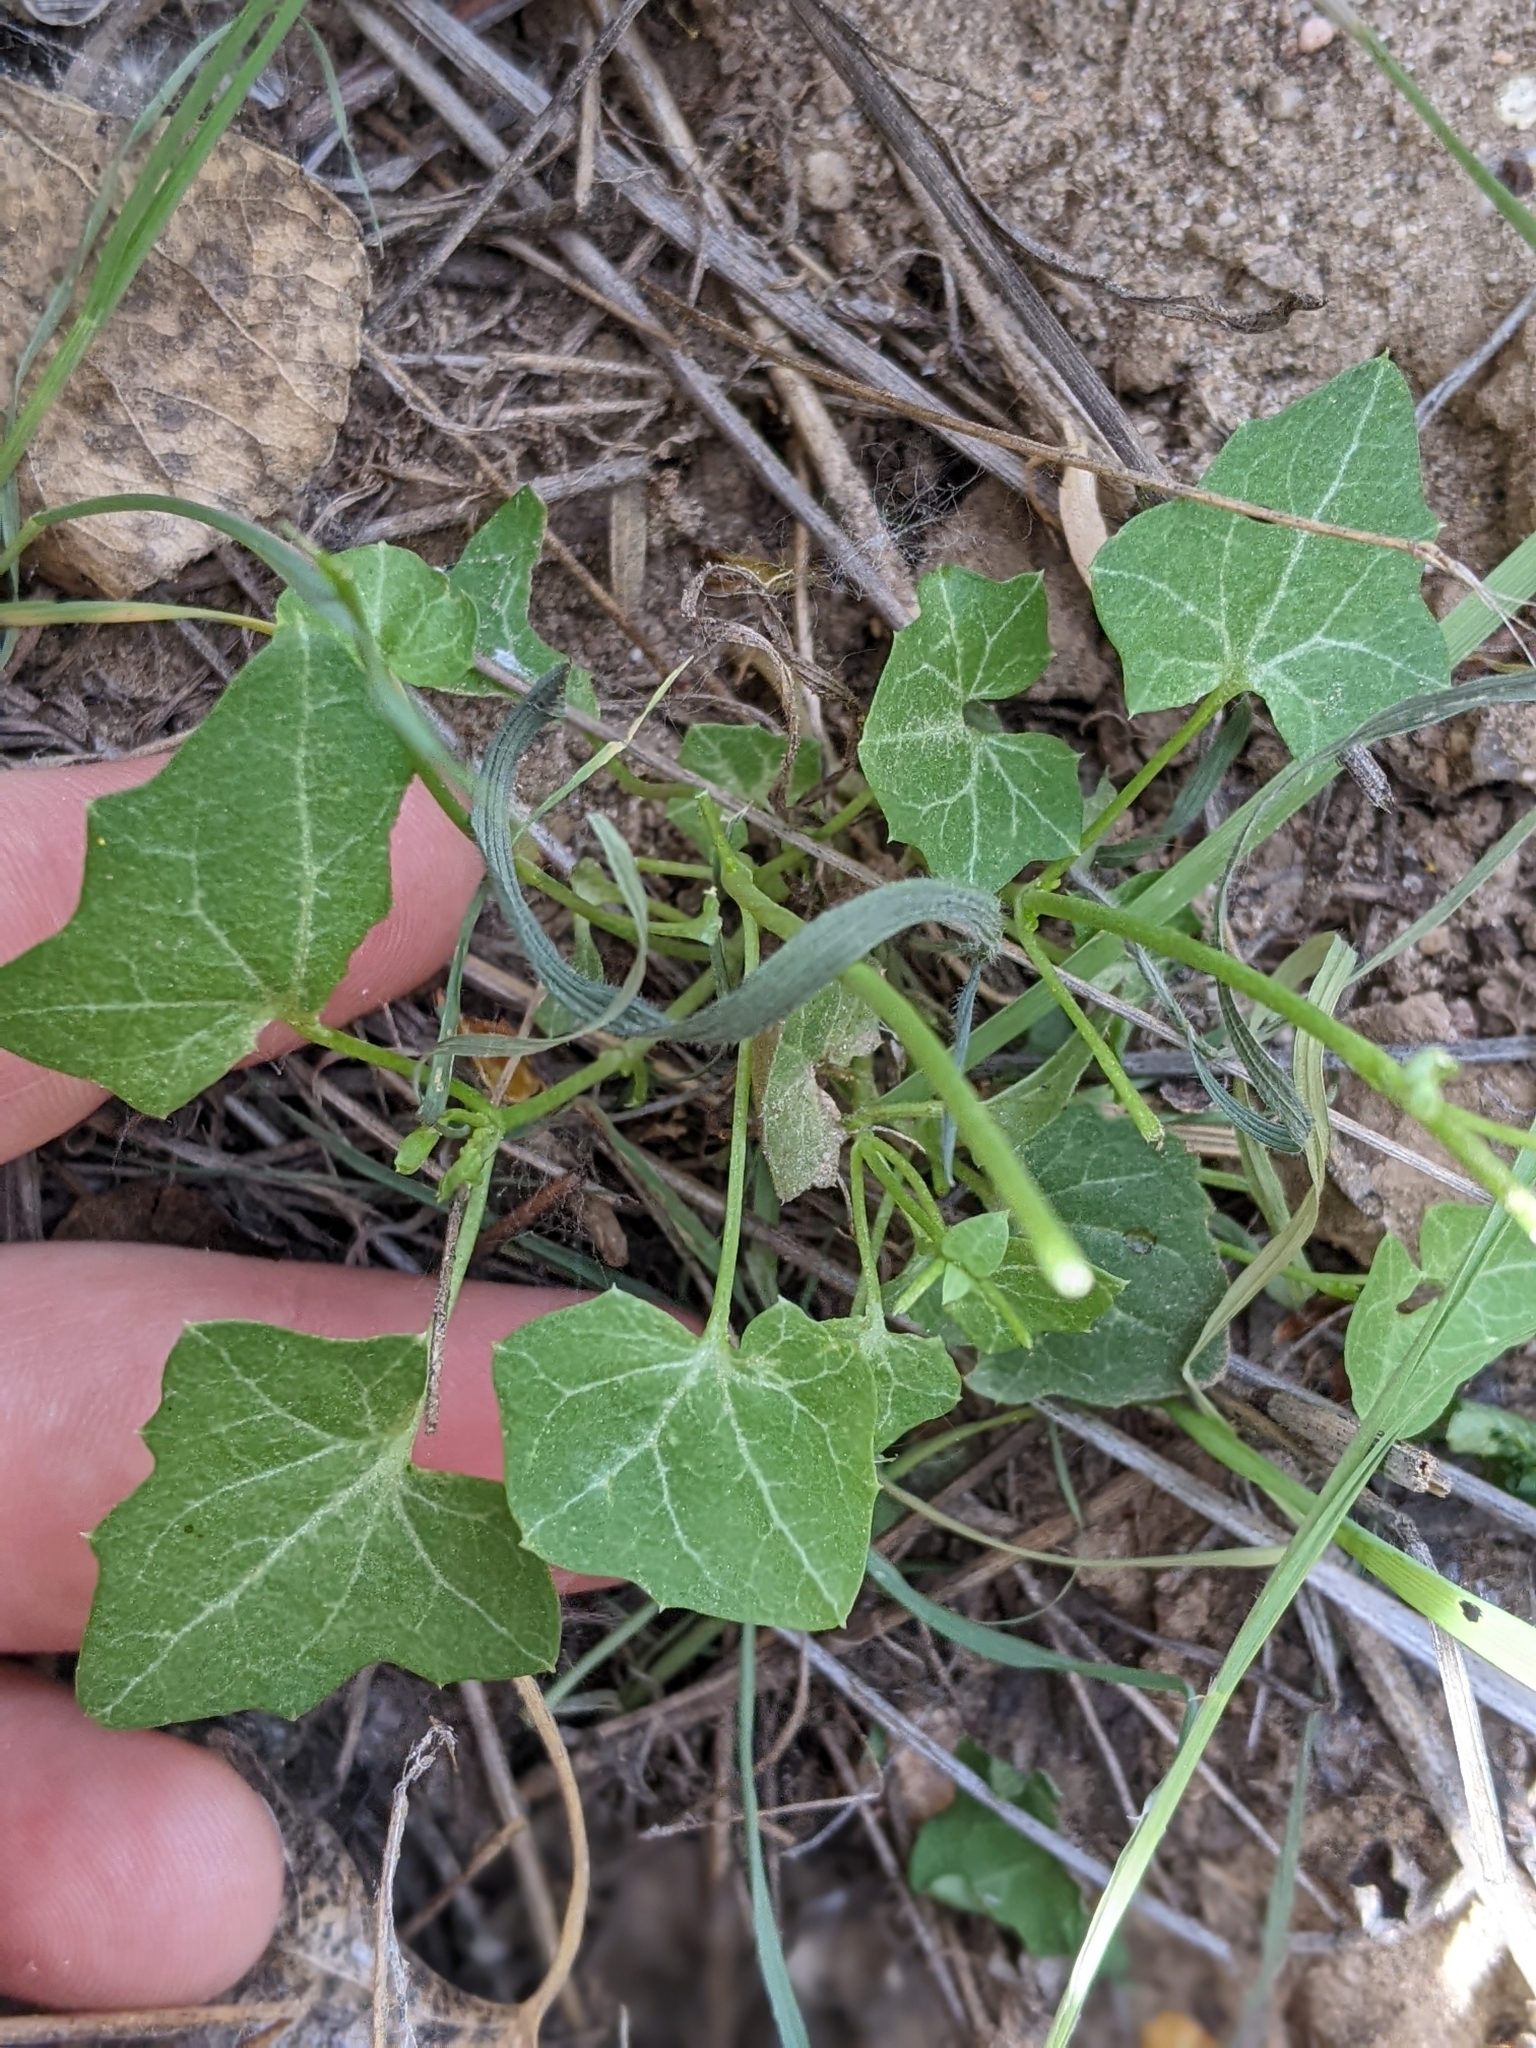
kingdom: Plantae
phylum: Tracheophyta
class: Magnoliopsida
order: Lamiales
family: Plantaginaceae
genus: Maurandella
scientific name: Maurandella antirrhiniflora
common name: Violet twining-snapdragon
